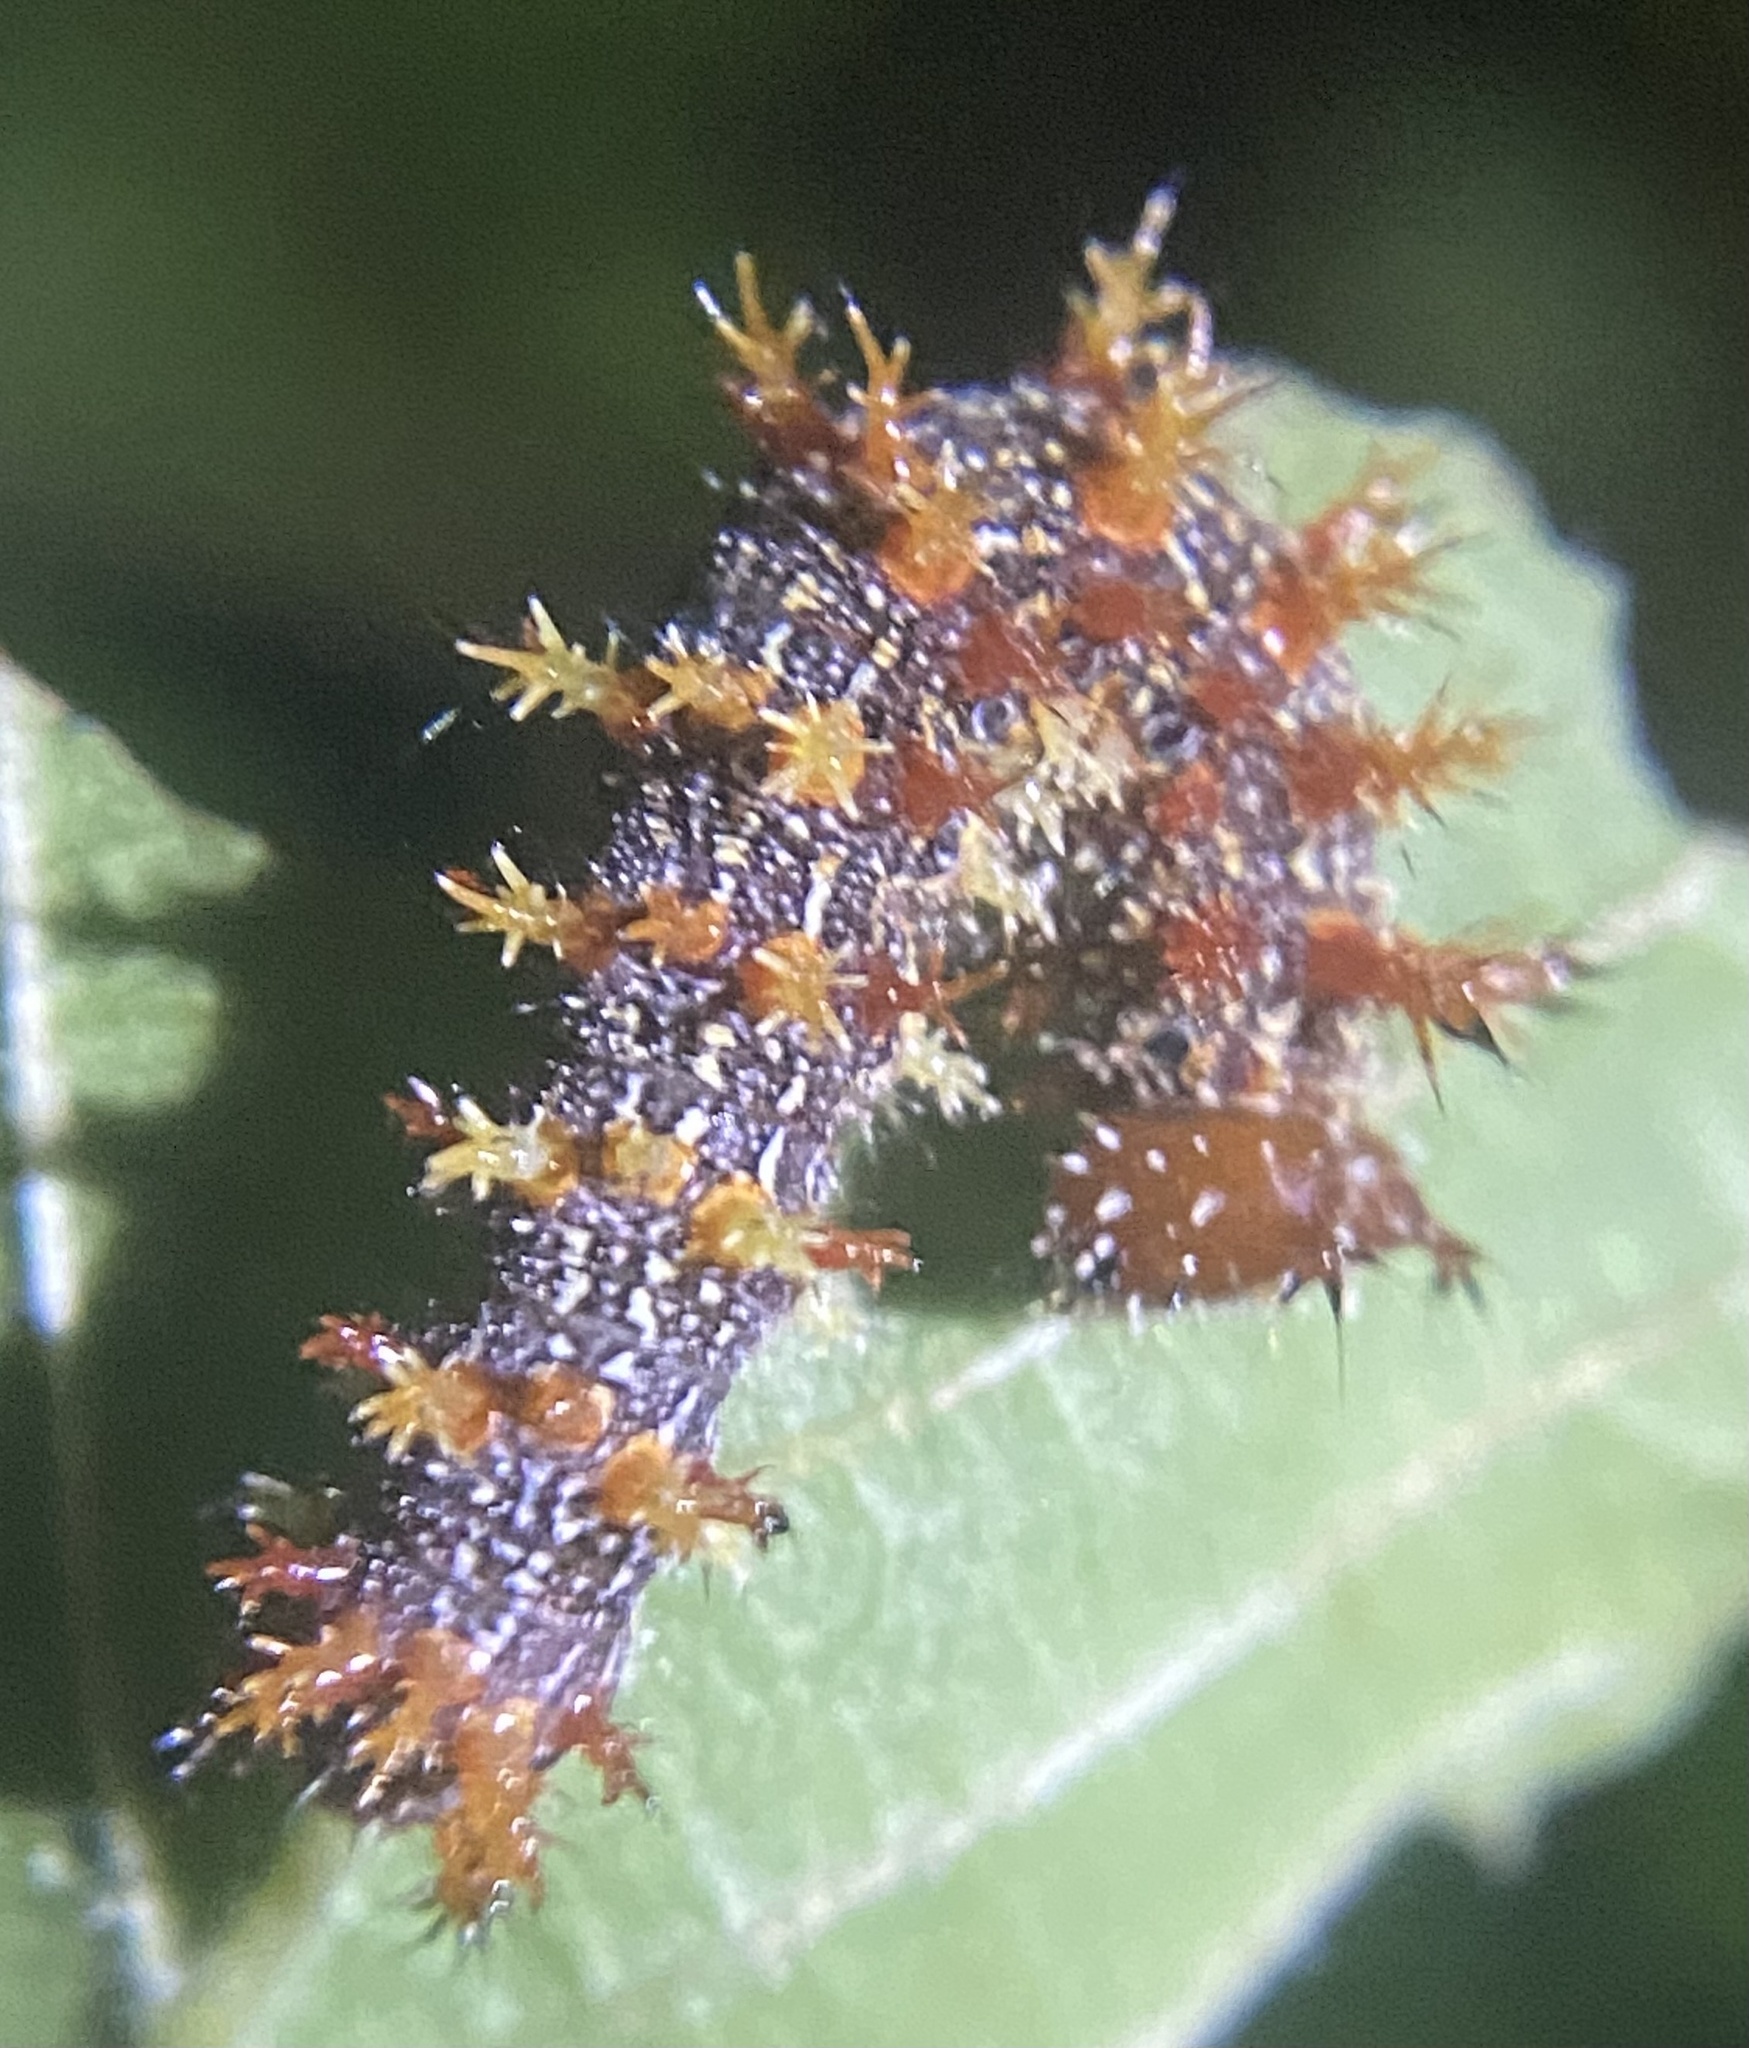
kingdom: Animalia
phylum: Arthropoda
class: Insecta
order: Lepidoptera
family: Nymphalidae
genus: Polygonia
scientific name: Polygonia interrogationis
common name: Question mark
